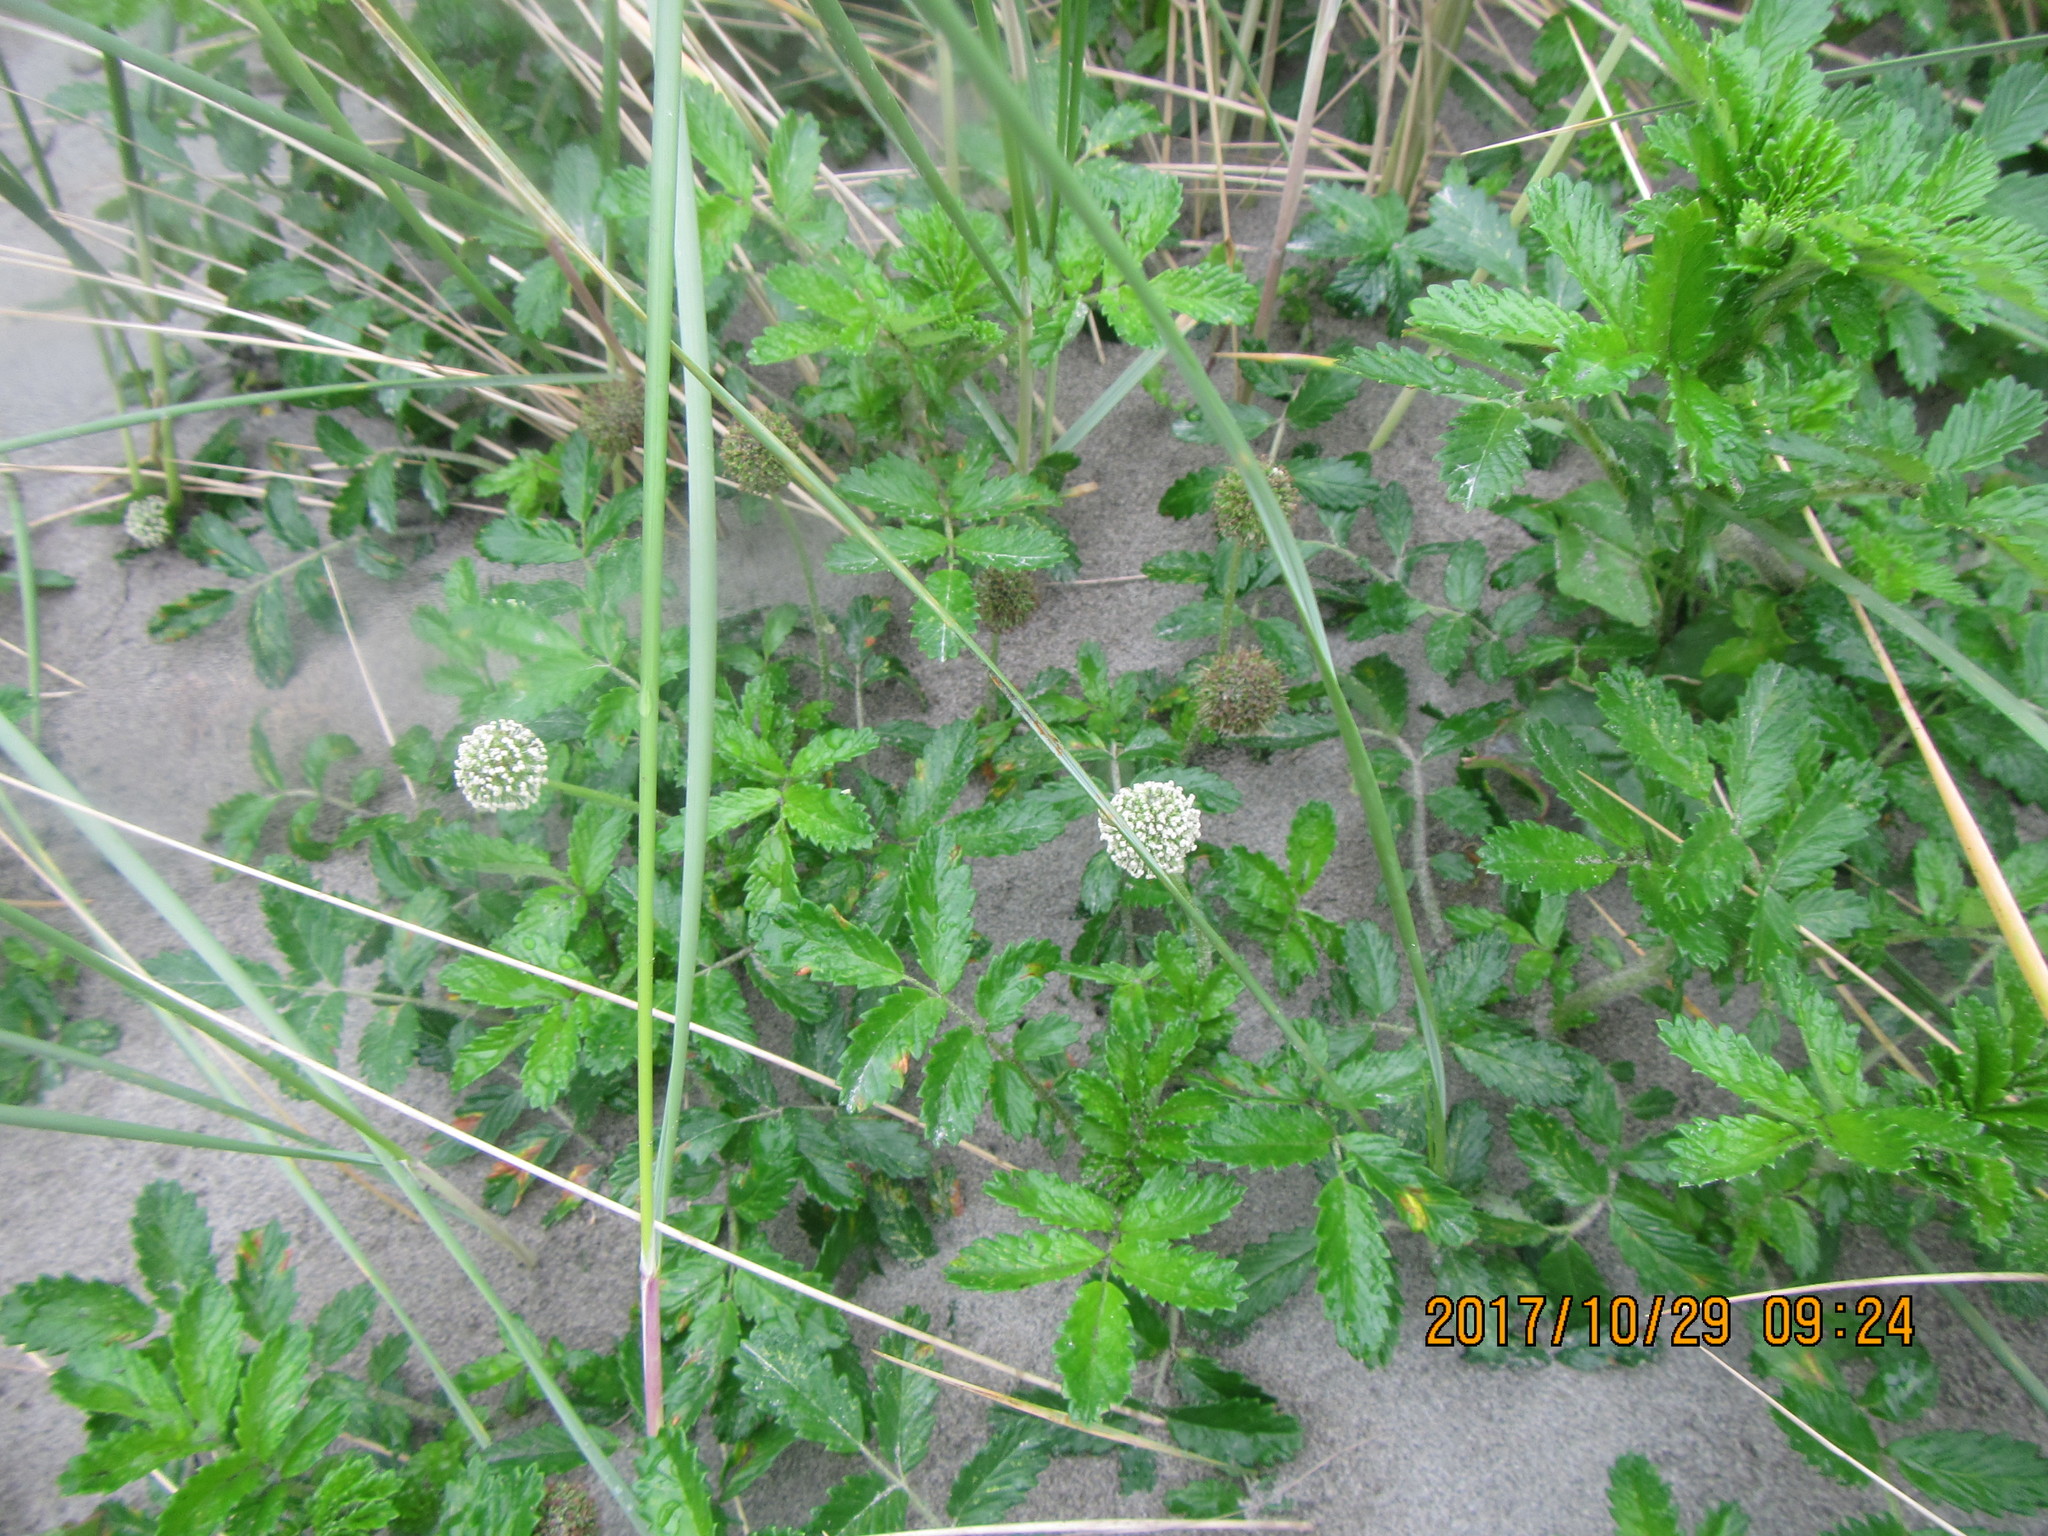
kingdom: Plantae
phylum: Tracheophyta
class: Magnoliopsida
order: Rosales
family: Rosaceae
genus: Acaena
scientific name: Acaena novae-zelandiae
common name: Pirri-pirri-bur
